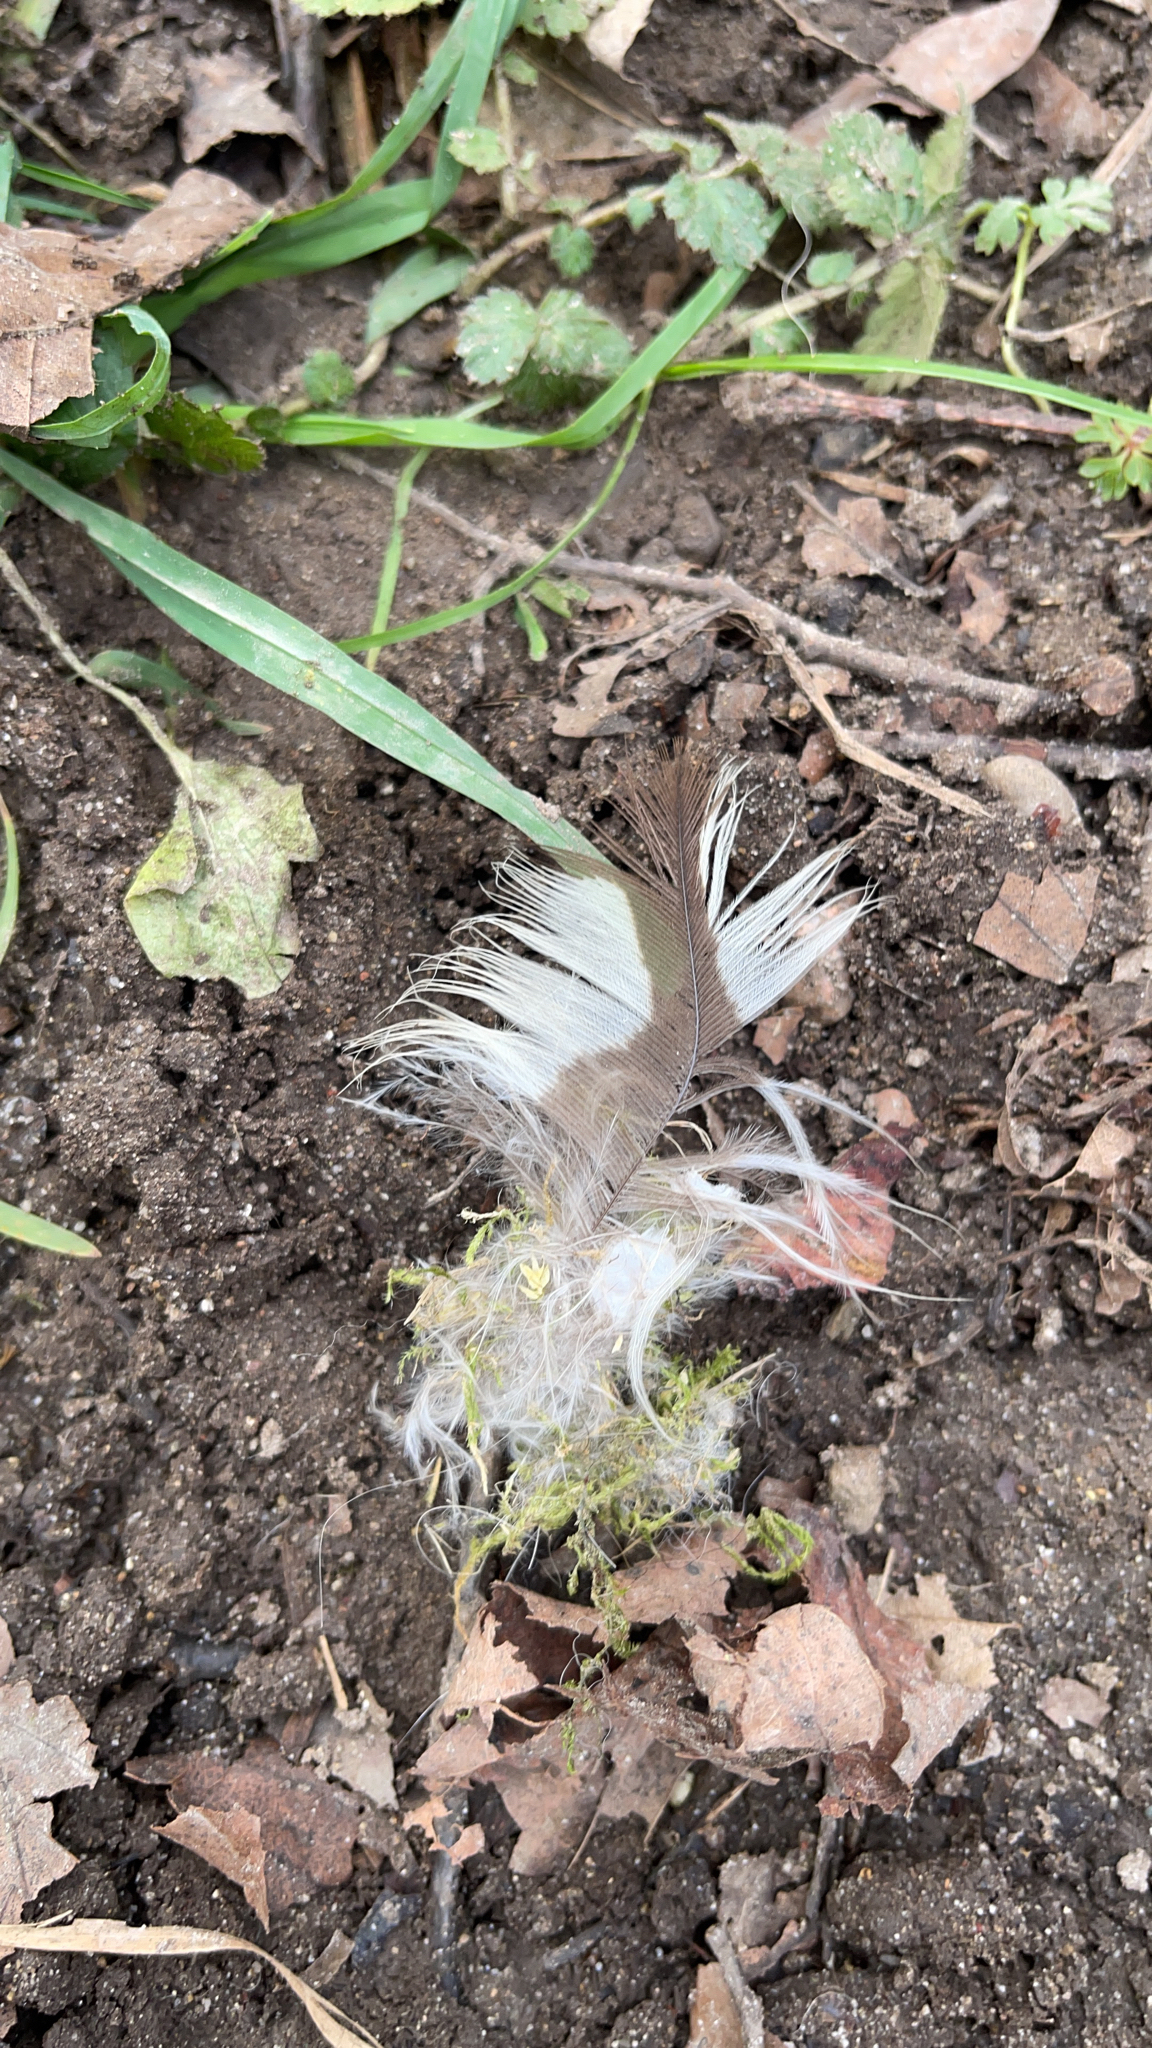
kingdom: Animalia
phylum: Chordata
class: Aves
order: Accipitriformes
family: Accipitridae
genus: Buteo
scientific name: Buteo buteo
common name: Common buzzard
